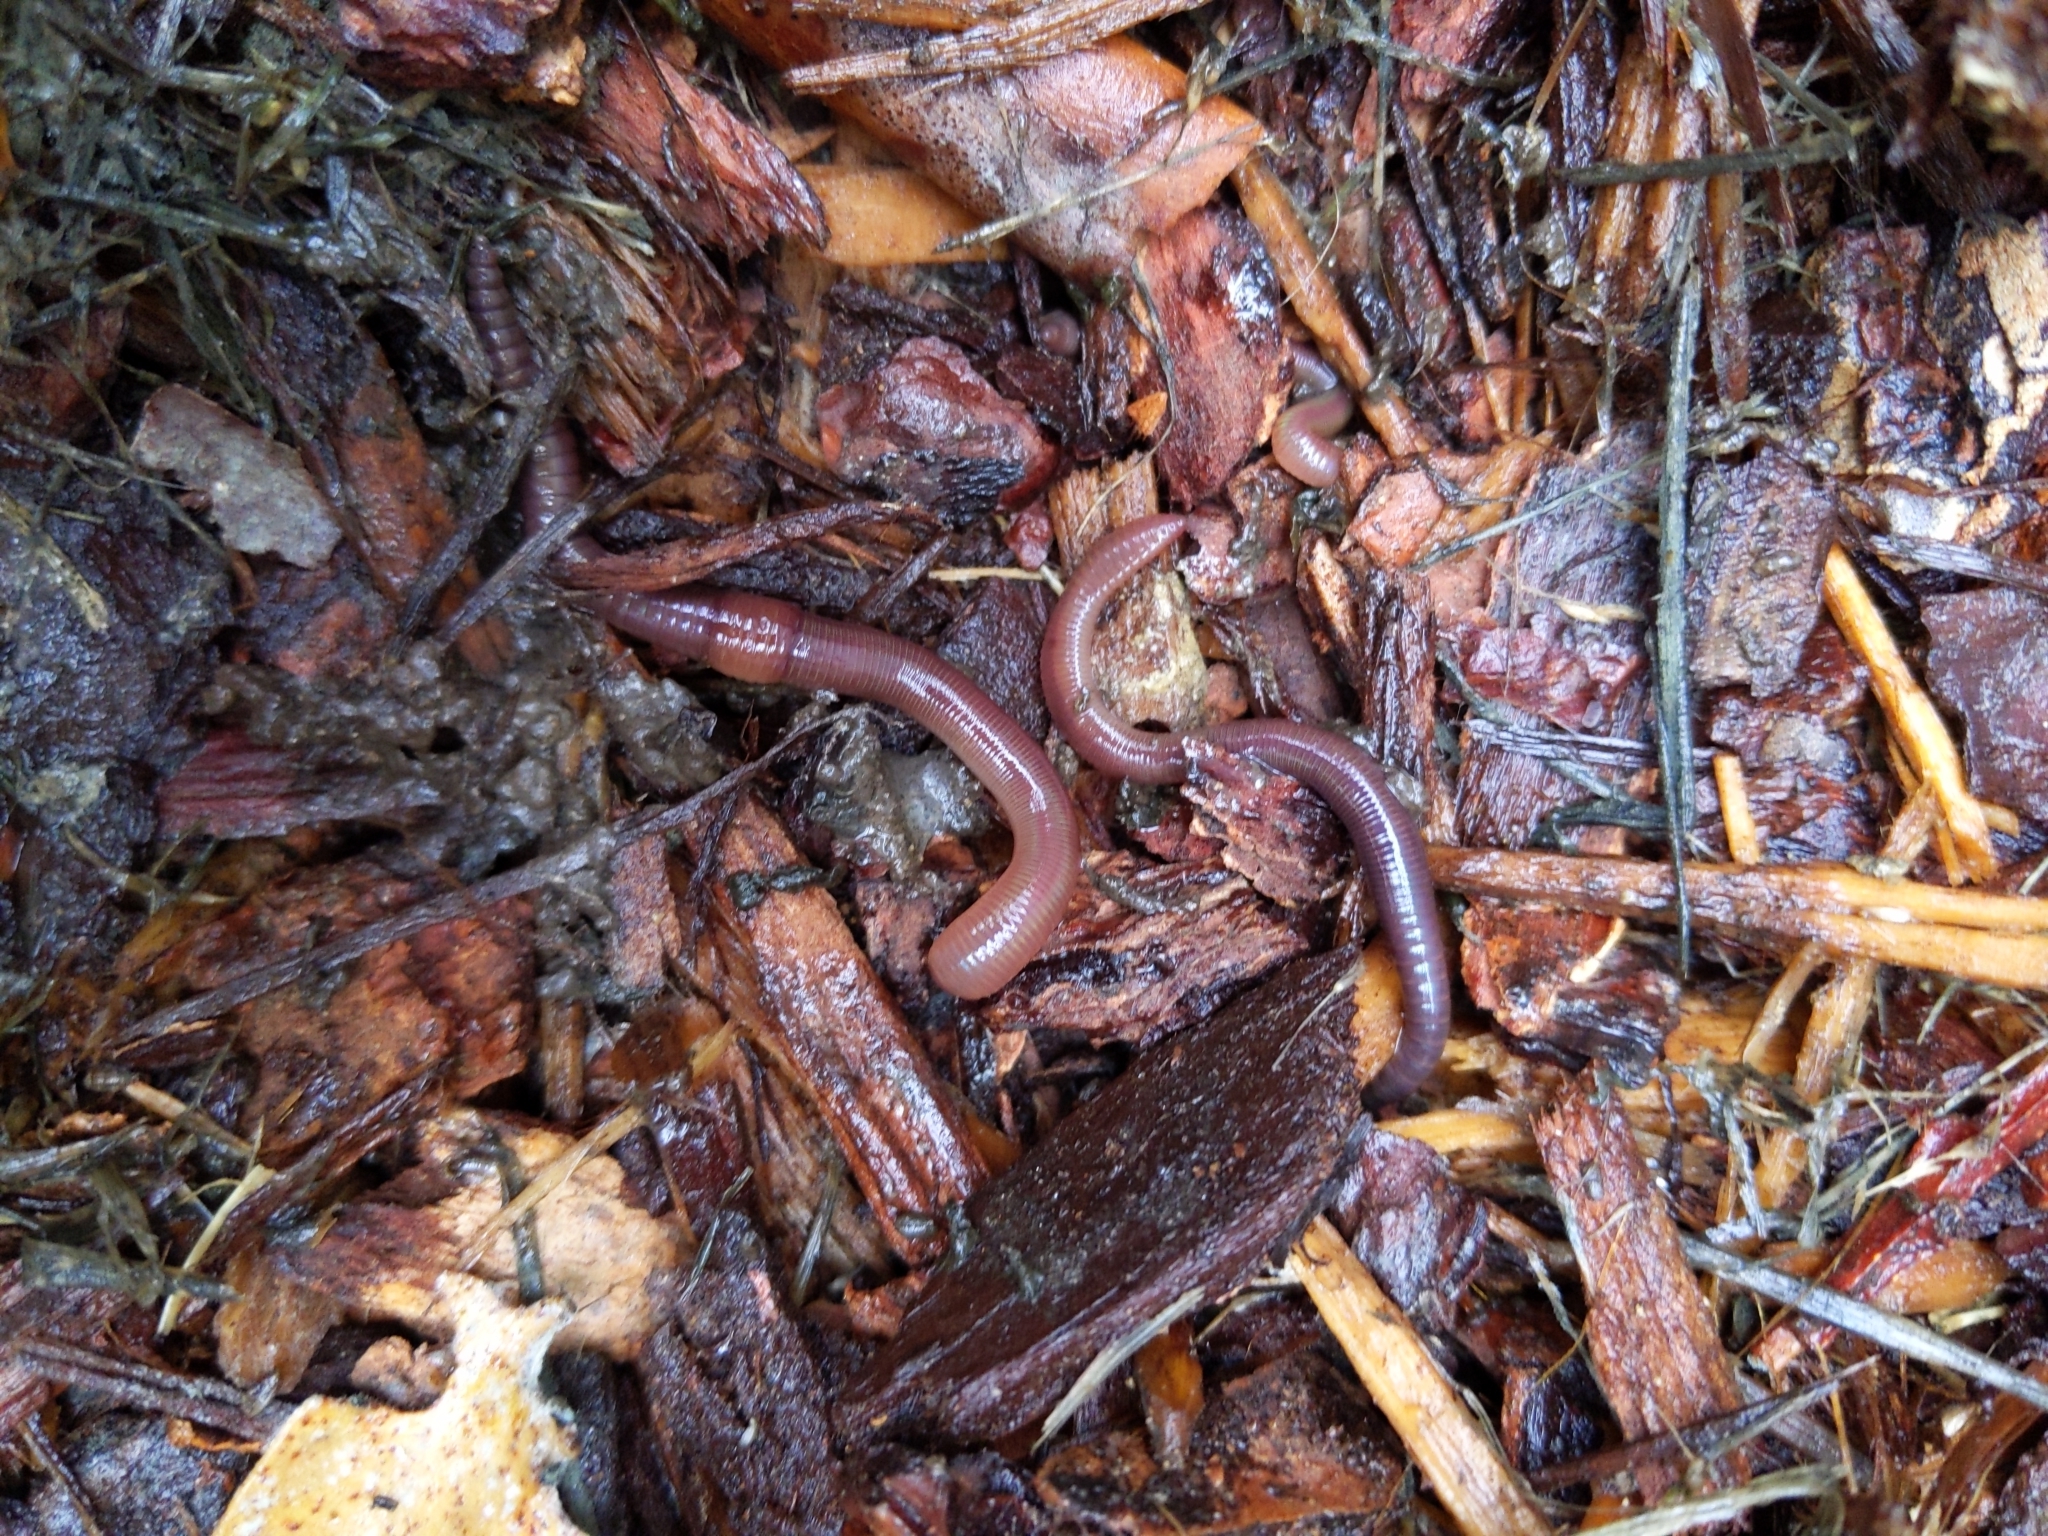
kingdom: Animalia
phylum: Annelida
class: Clitellata
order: Crassiclitellata
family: Lumbricidae
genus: Lumbricus
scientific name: Lumbricus terrestris
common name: Common earthworm
